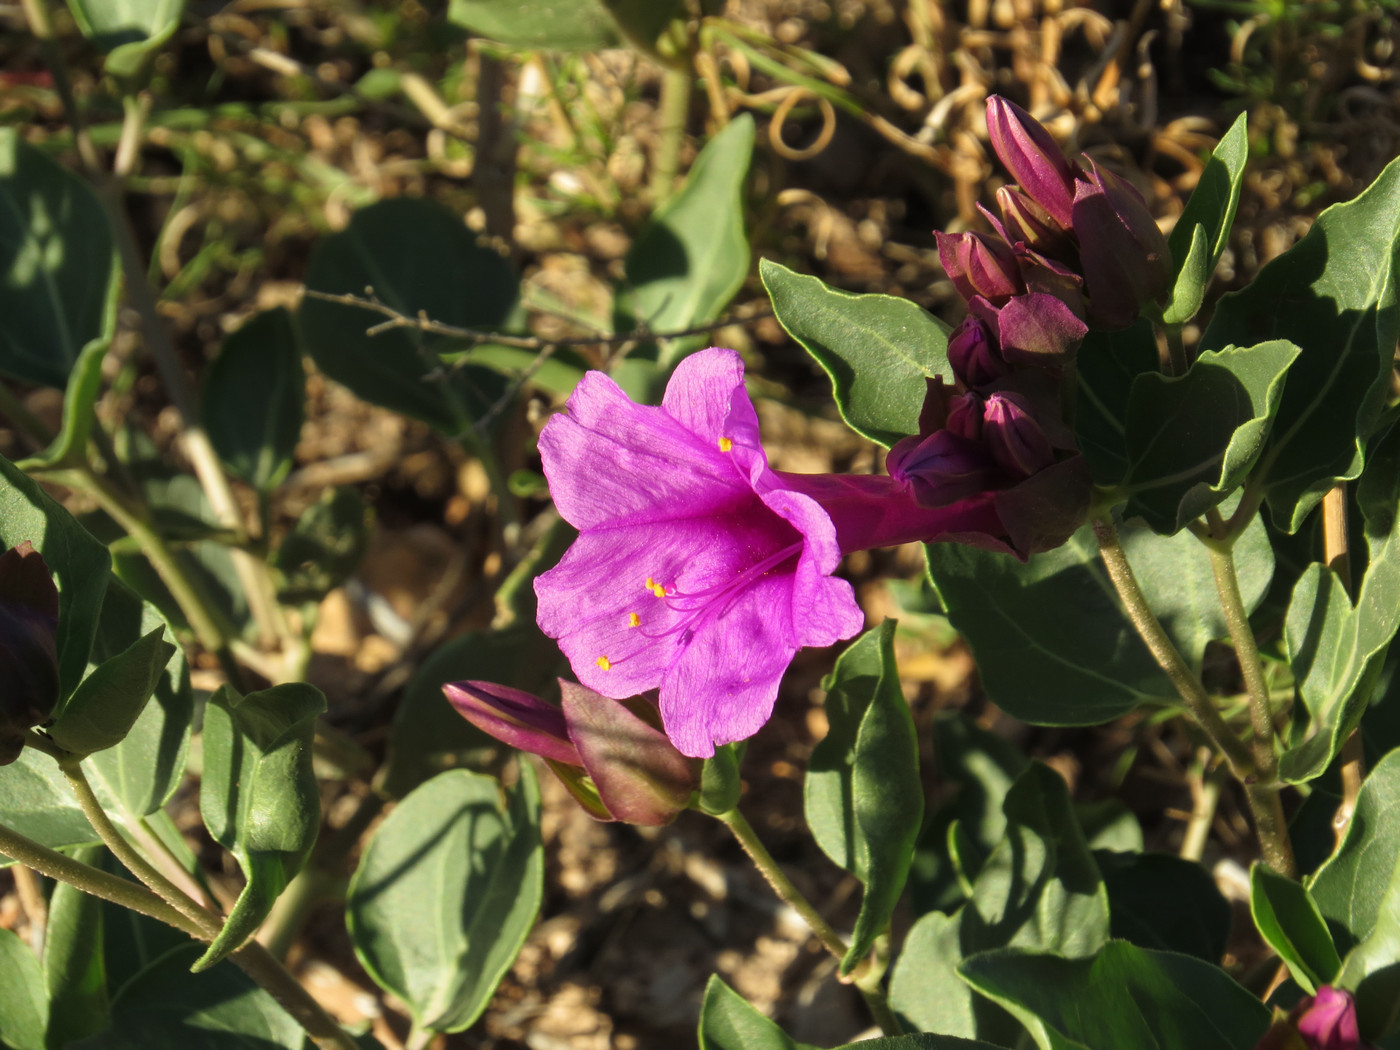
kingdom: Plantae
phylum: Tracheophyta
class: Magnoliopsida
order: Caryophyllales
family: Nyctaginaceae
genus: Mirabilis
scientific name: Mirabilis multiflora
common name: Froebel's four-o'clock
